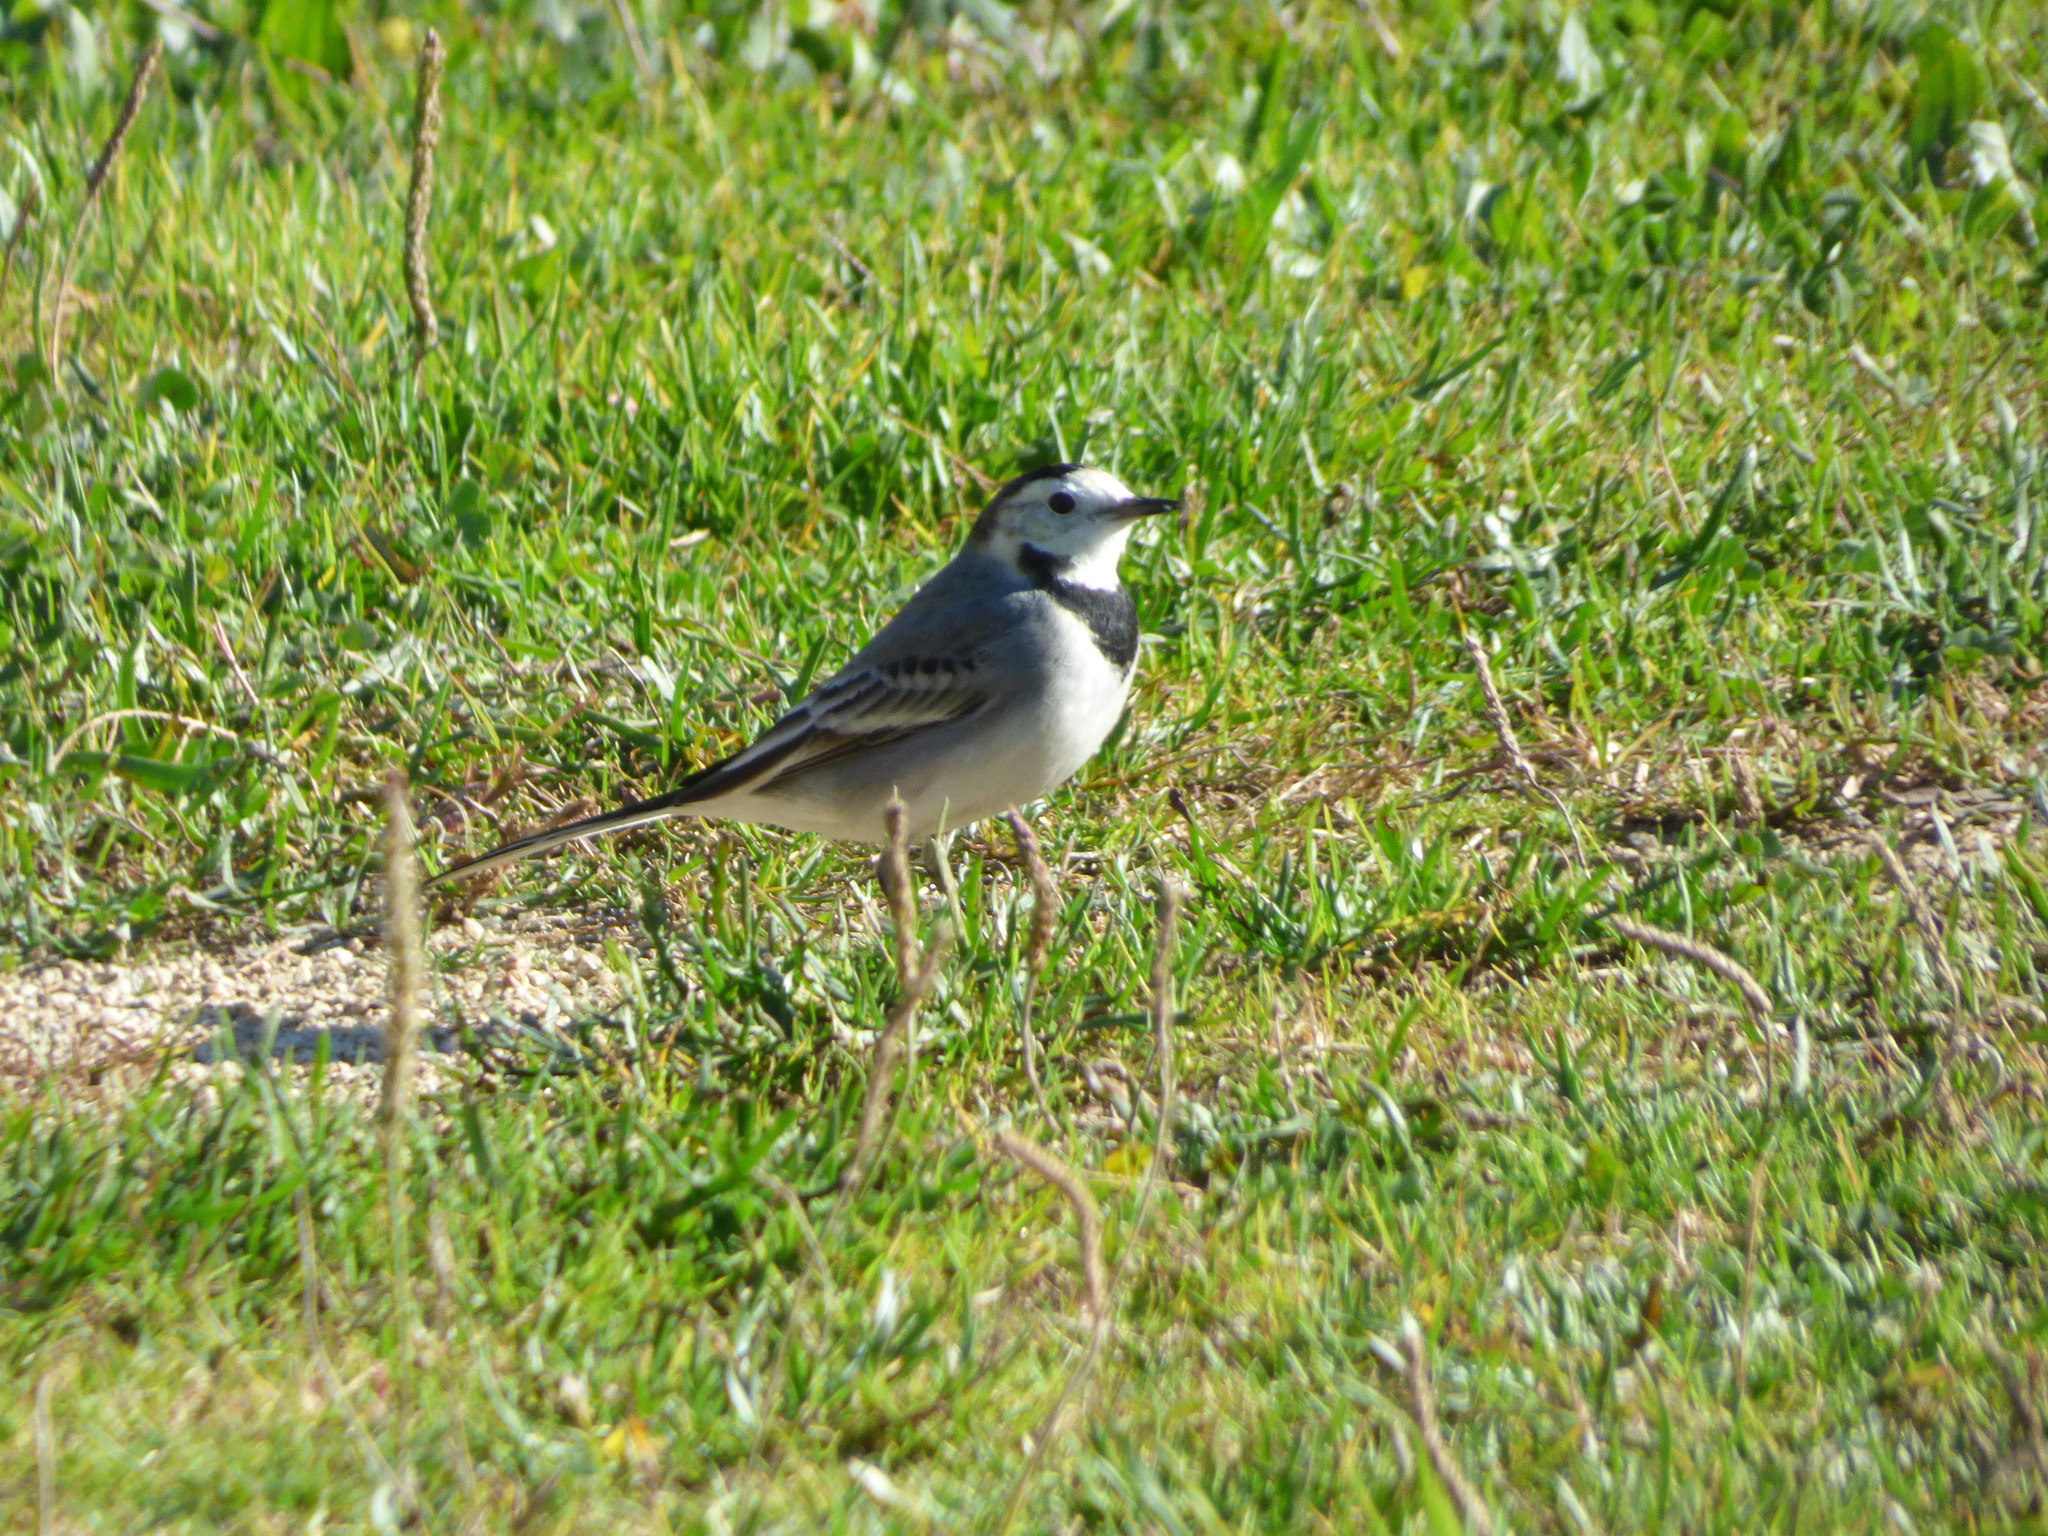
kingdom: Animalia
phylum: Chordata
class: Aves
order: Passeriformes
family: Motacillidae
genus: Motacilla
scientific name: Motacilla alba
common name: White wagtail
